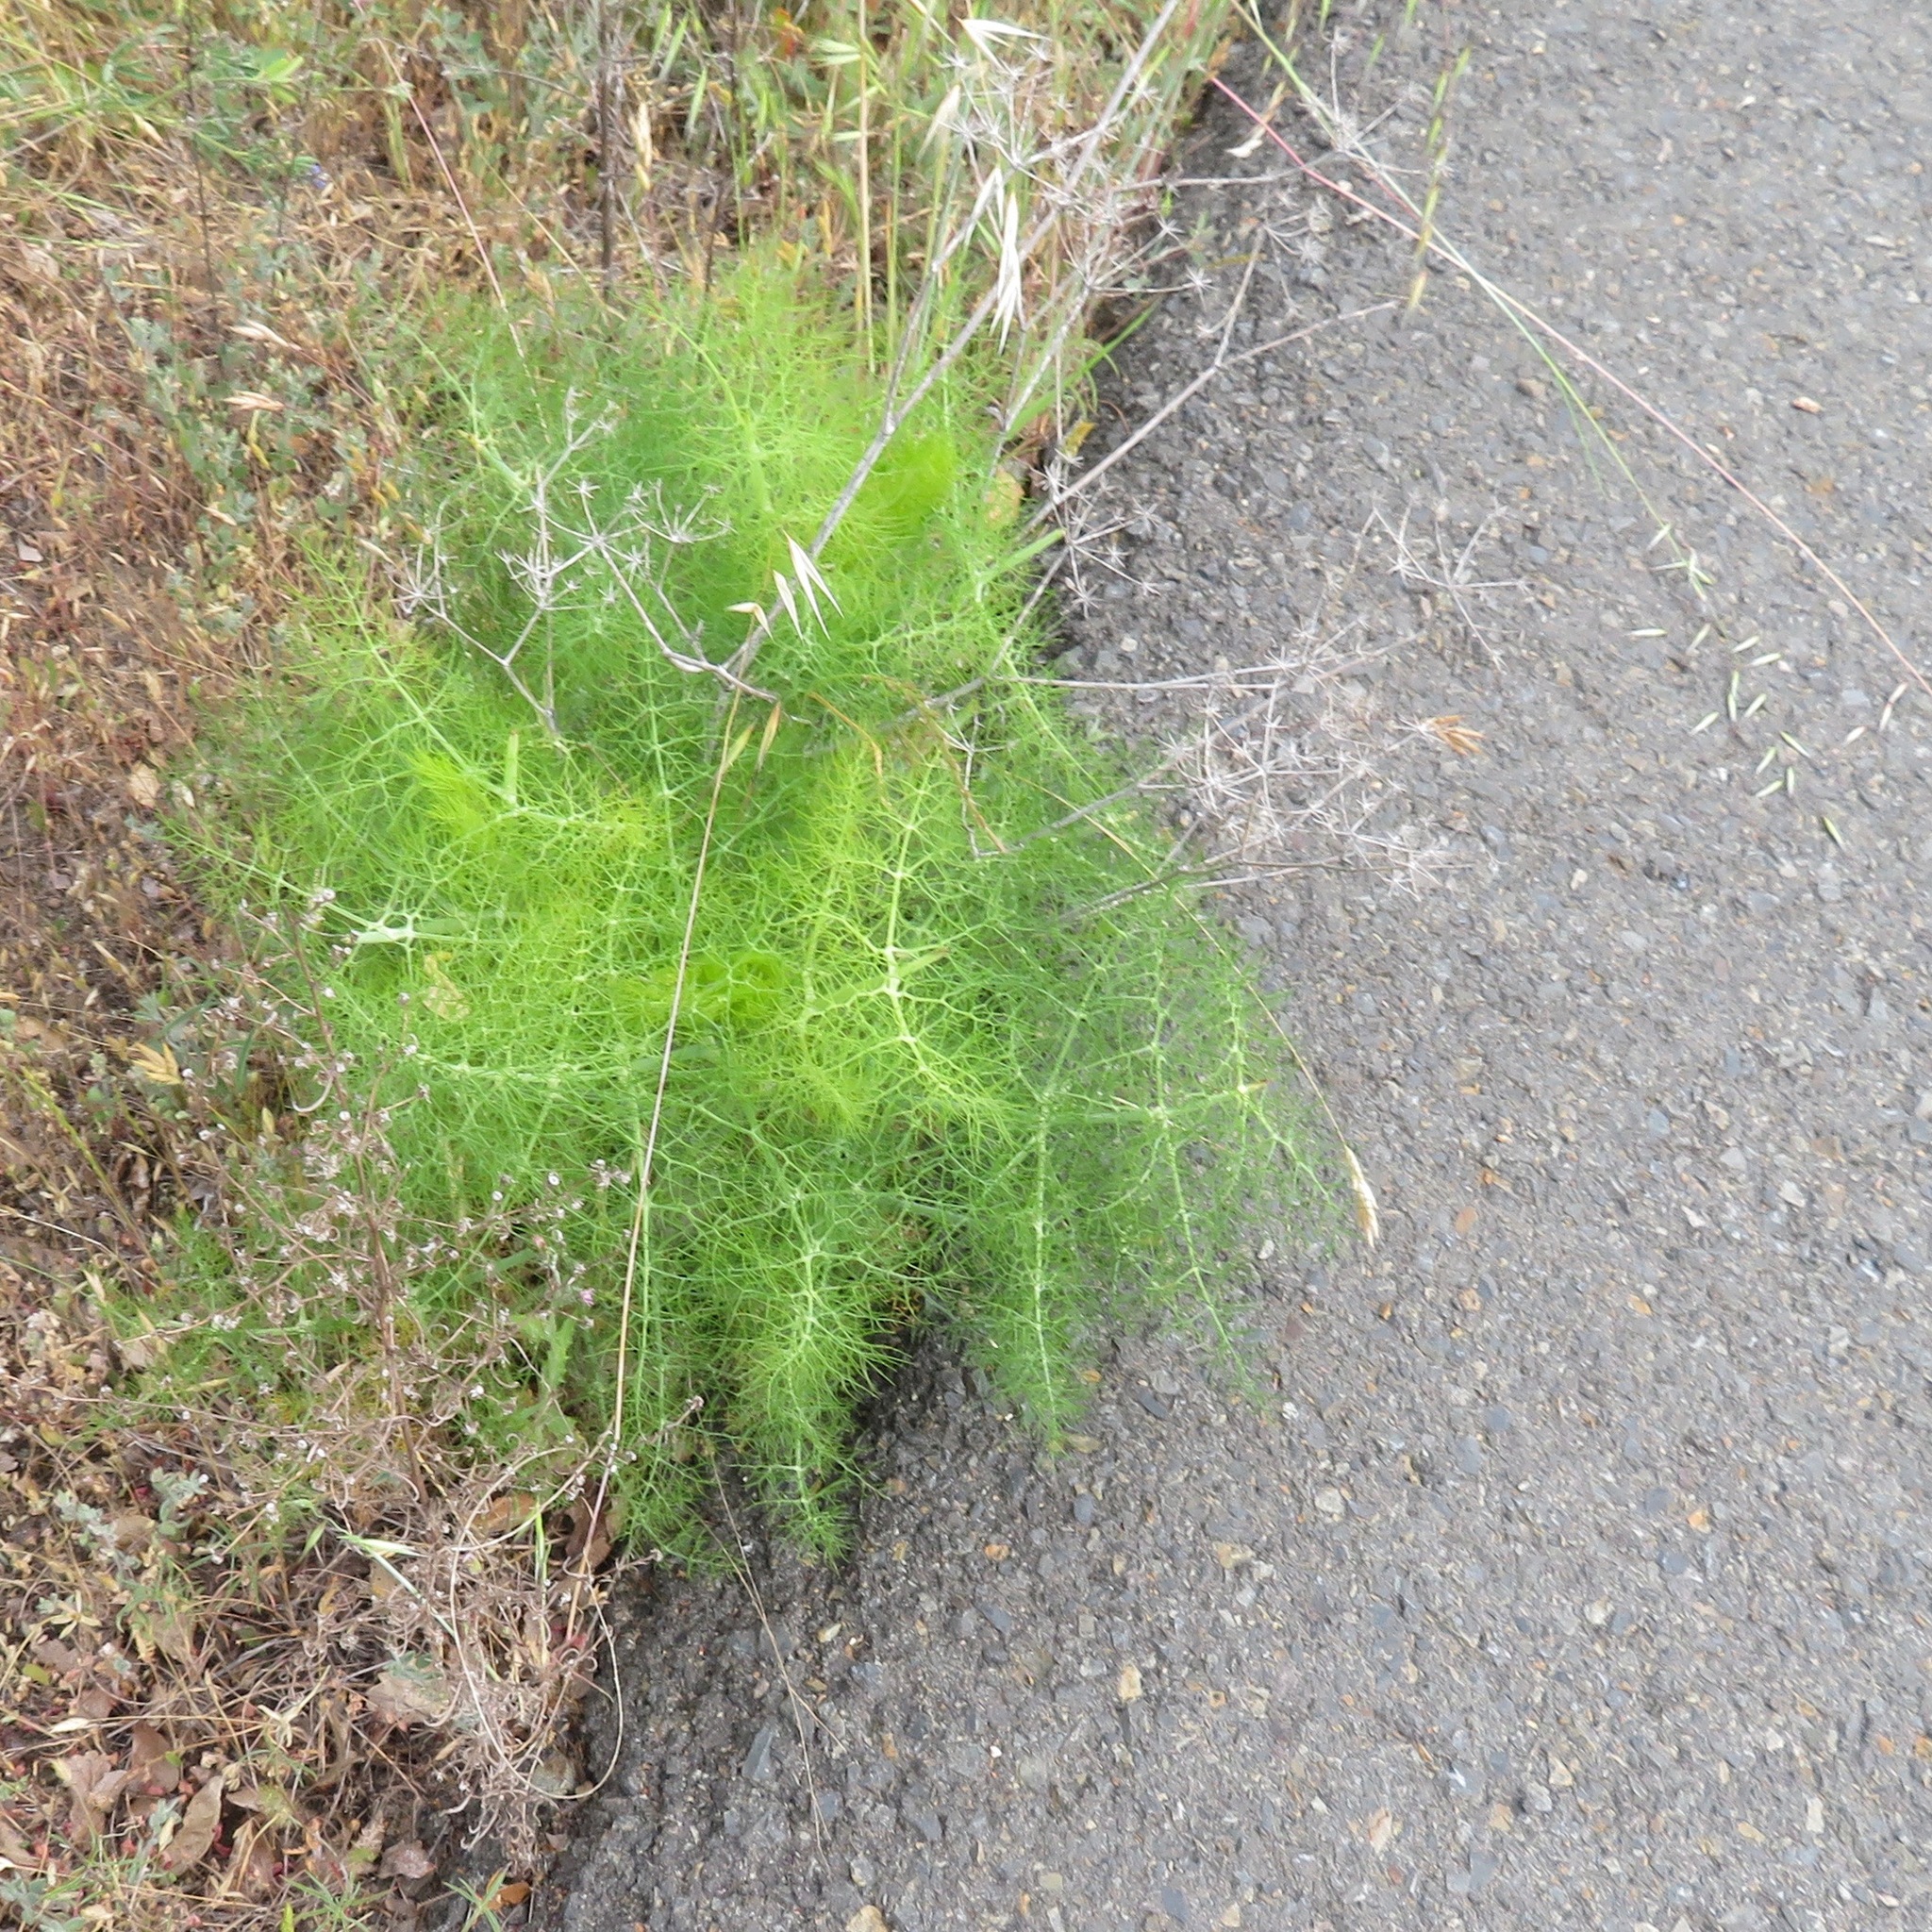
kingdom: Plantae
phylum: Tracheophyta
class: Magnoliopsida
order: Apiales
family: Apiaceae
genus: Foeniculum
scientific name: Foeniculum vulgare
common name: Fennel
